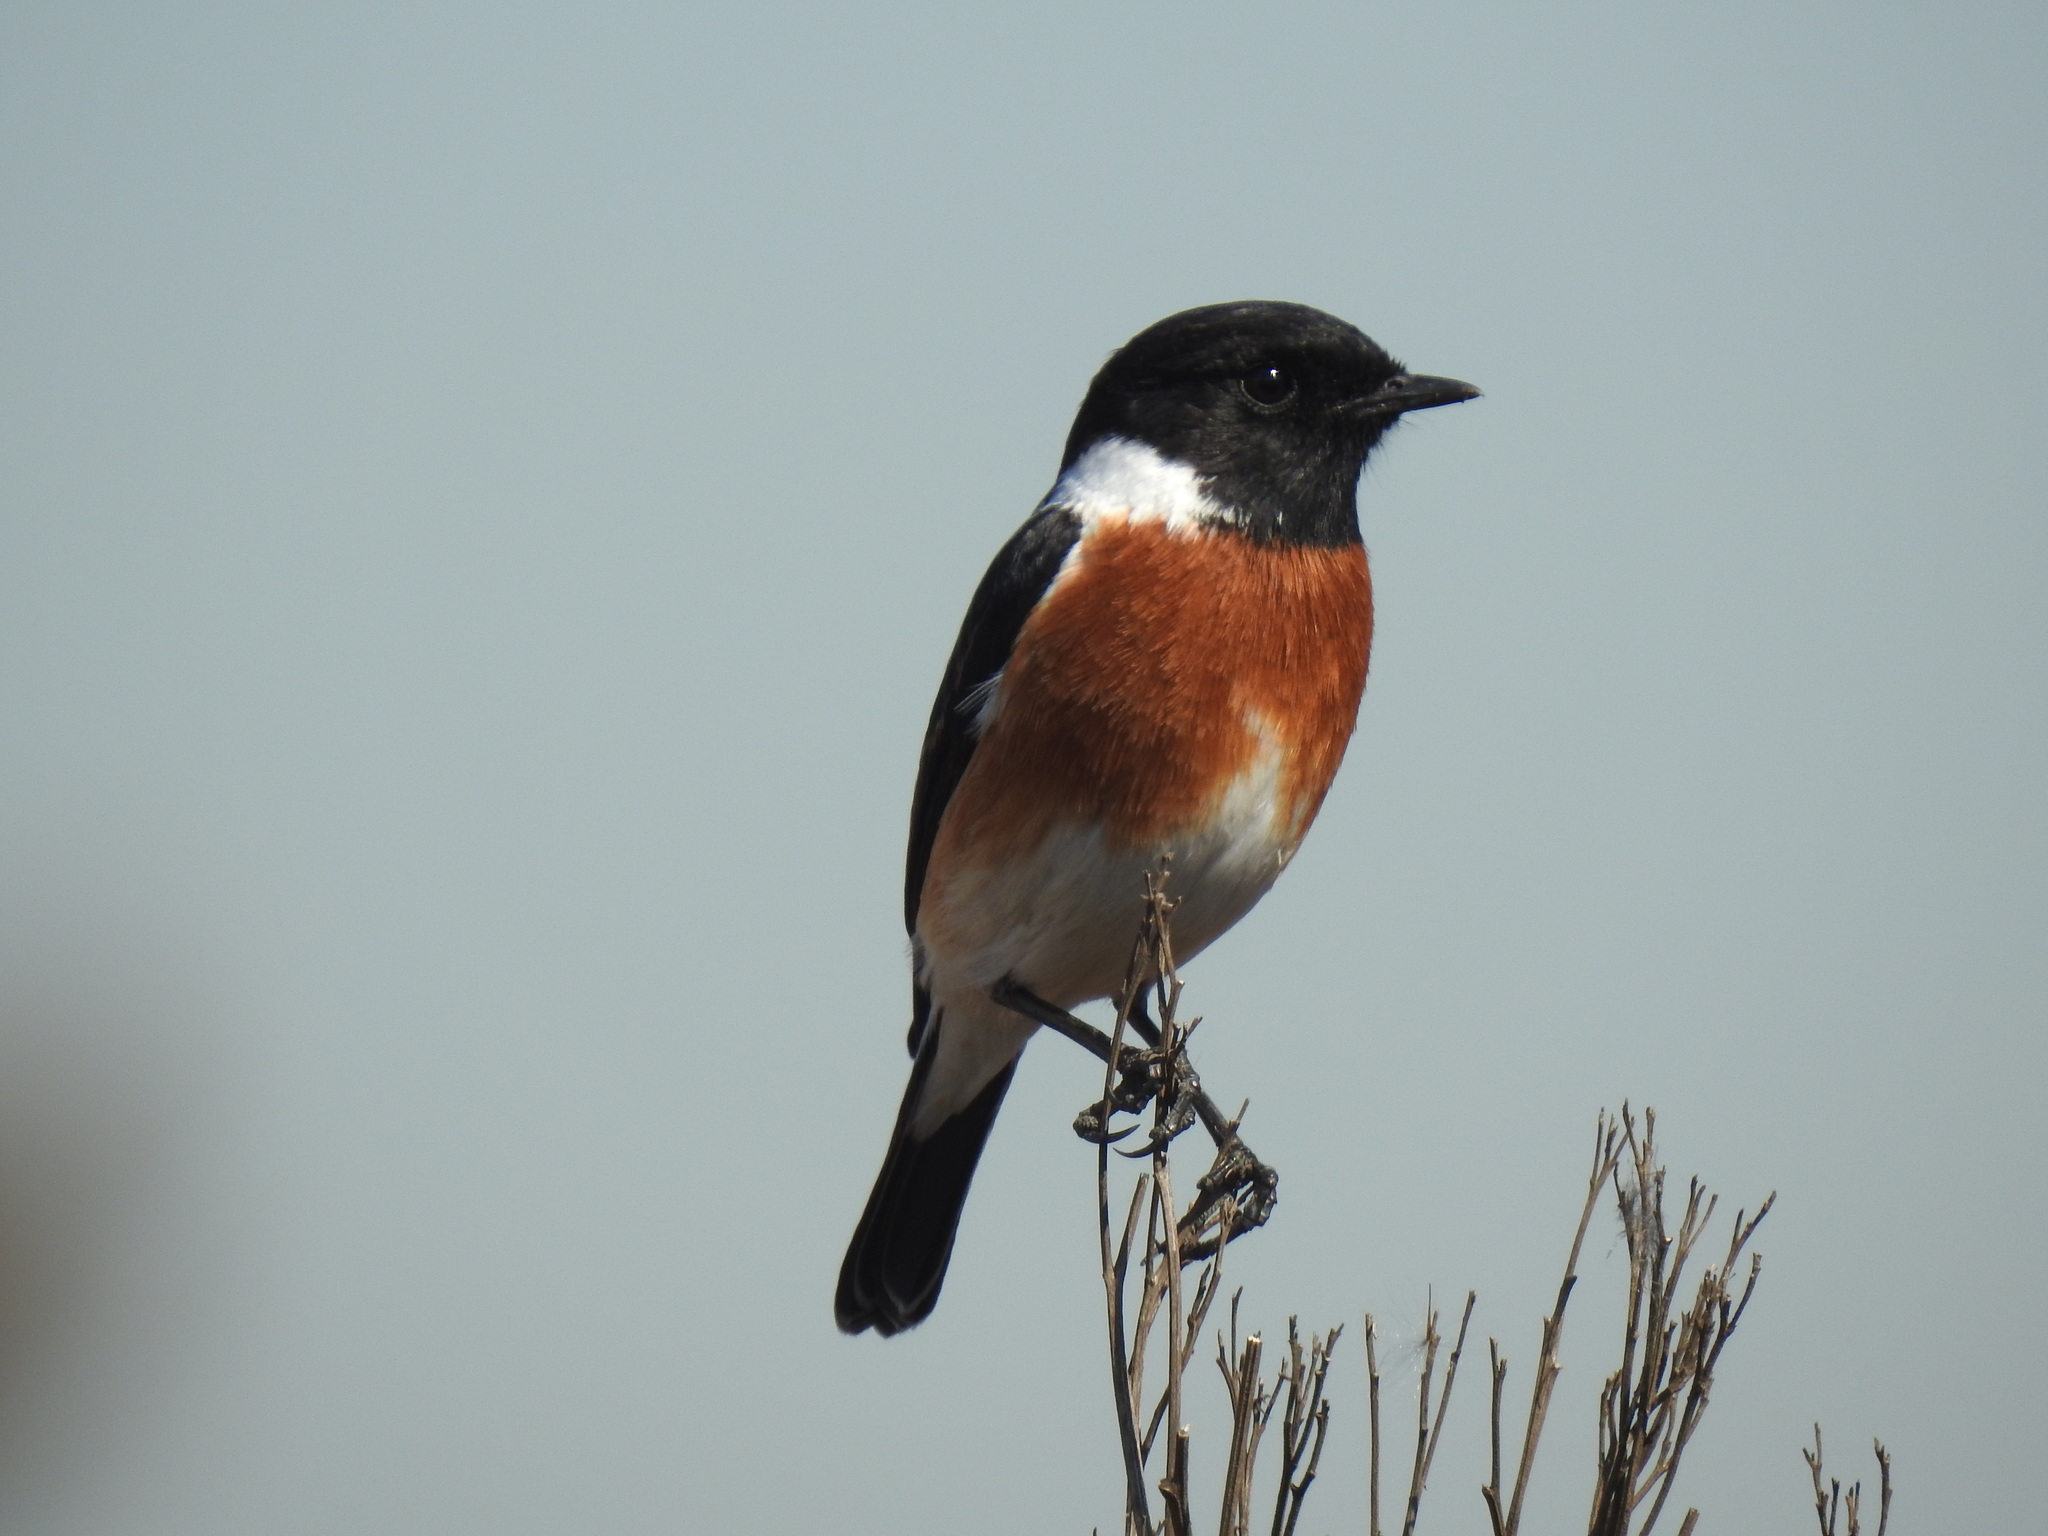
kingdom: Animalia
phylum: Chordata
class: Aves
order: Passeriformes
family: Muscicapidae
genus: Saxicola
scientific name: Saxicola torquatus
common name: African stonechat
